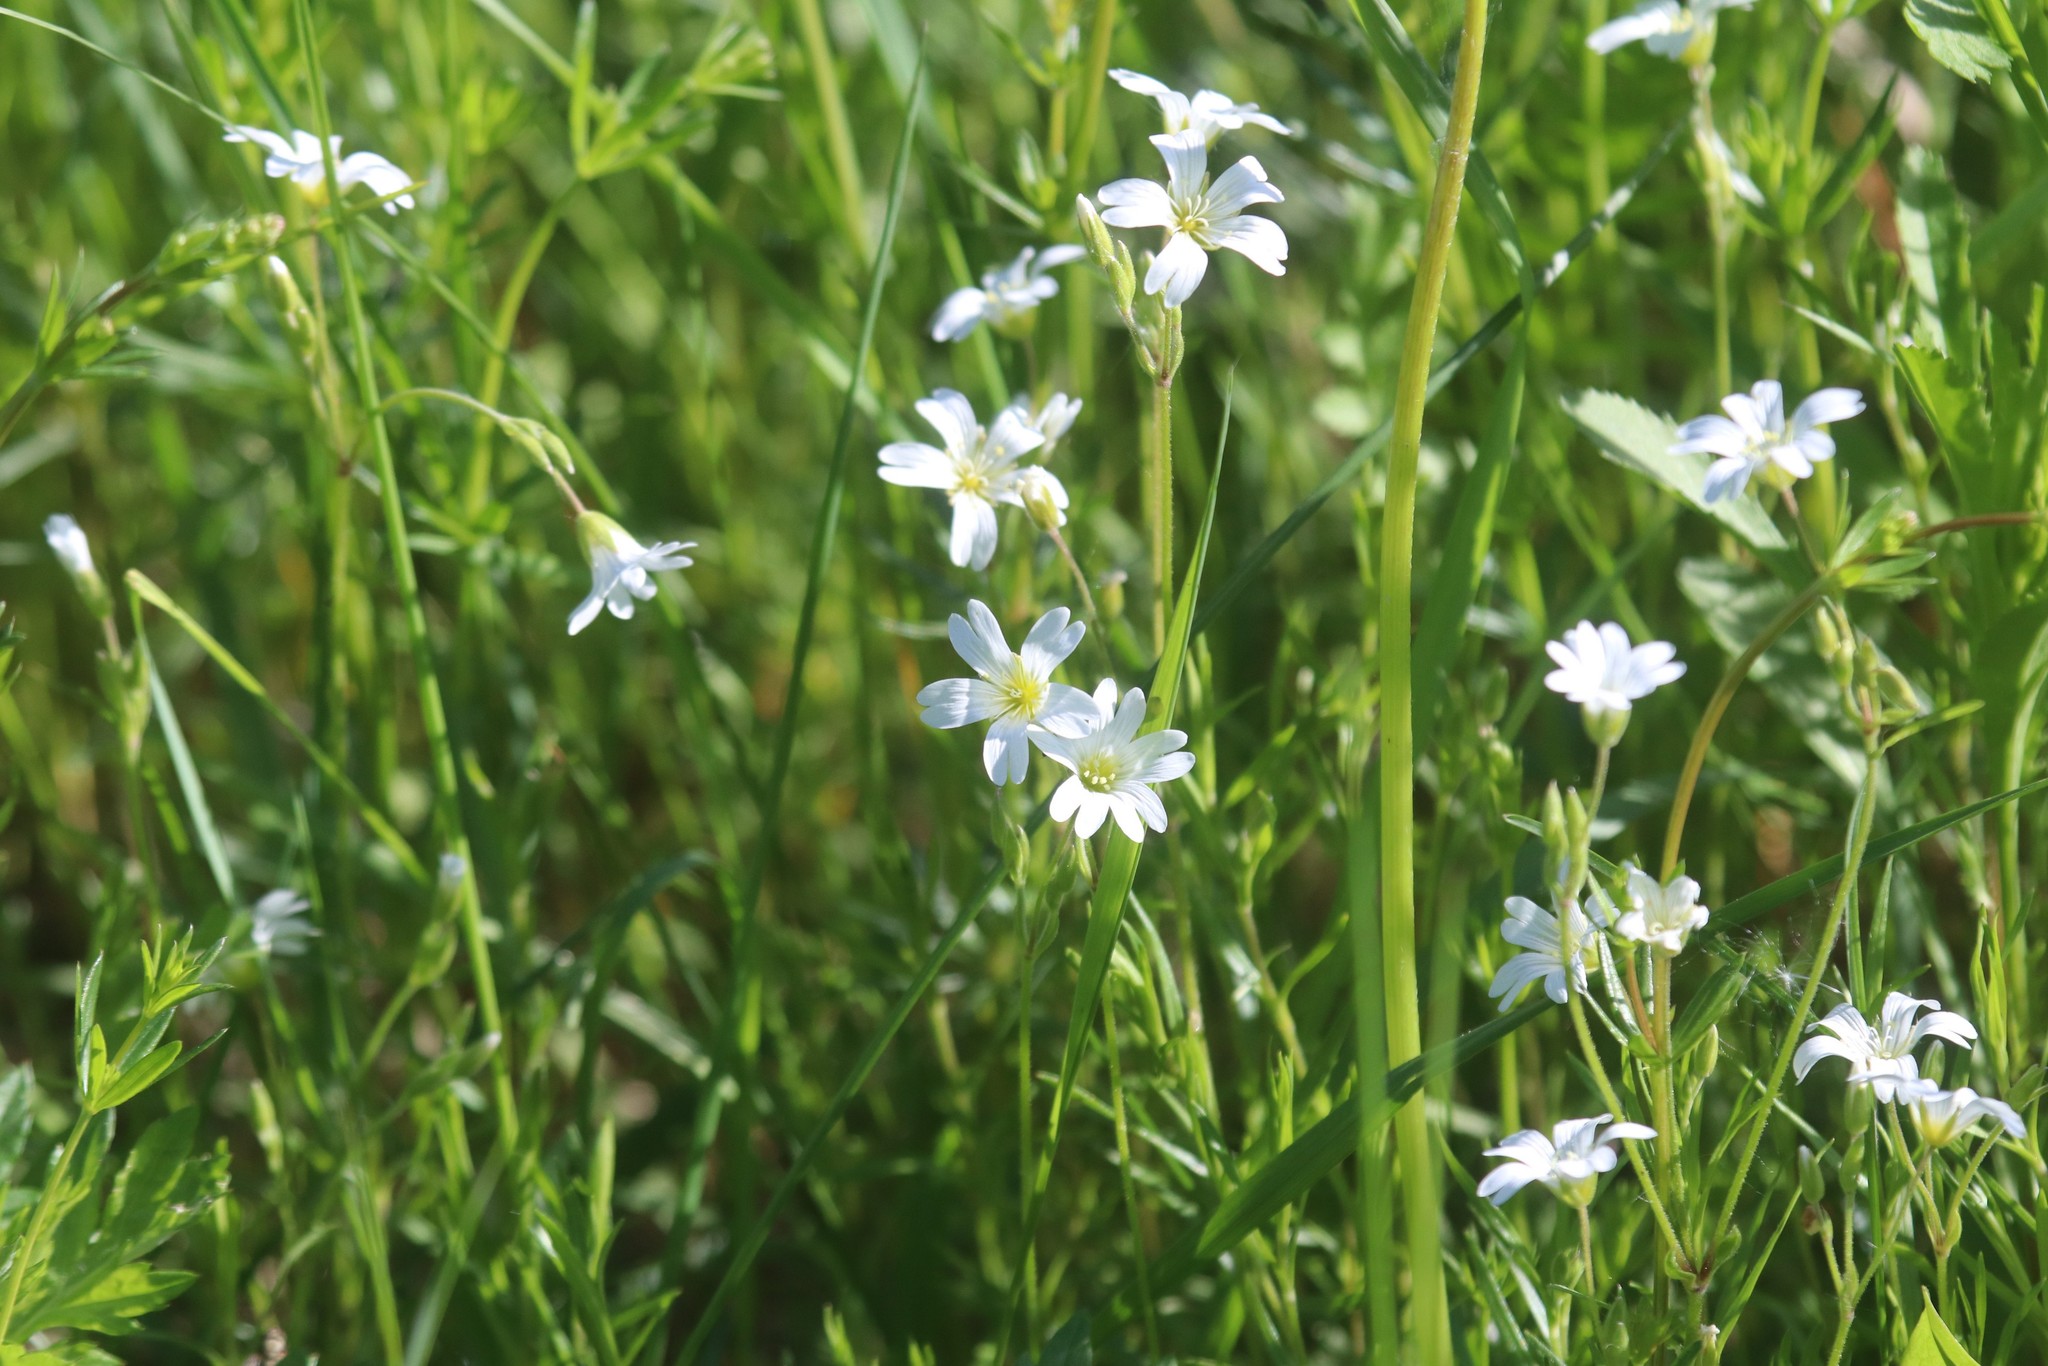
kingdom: Plantae
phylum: Tracheophyta
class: Magnoliopsida
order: Caryophyllales
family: Caryophyllaceae
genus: Cerastium
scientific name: Cerastium arvense
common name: Field mouse-ear
